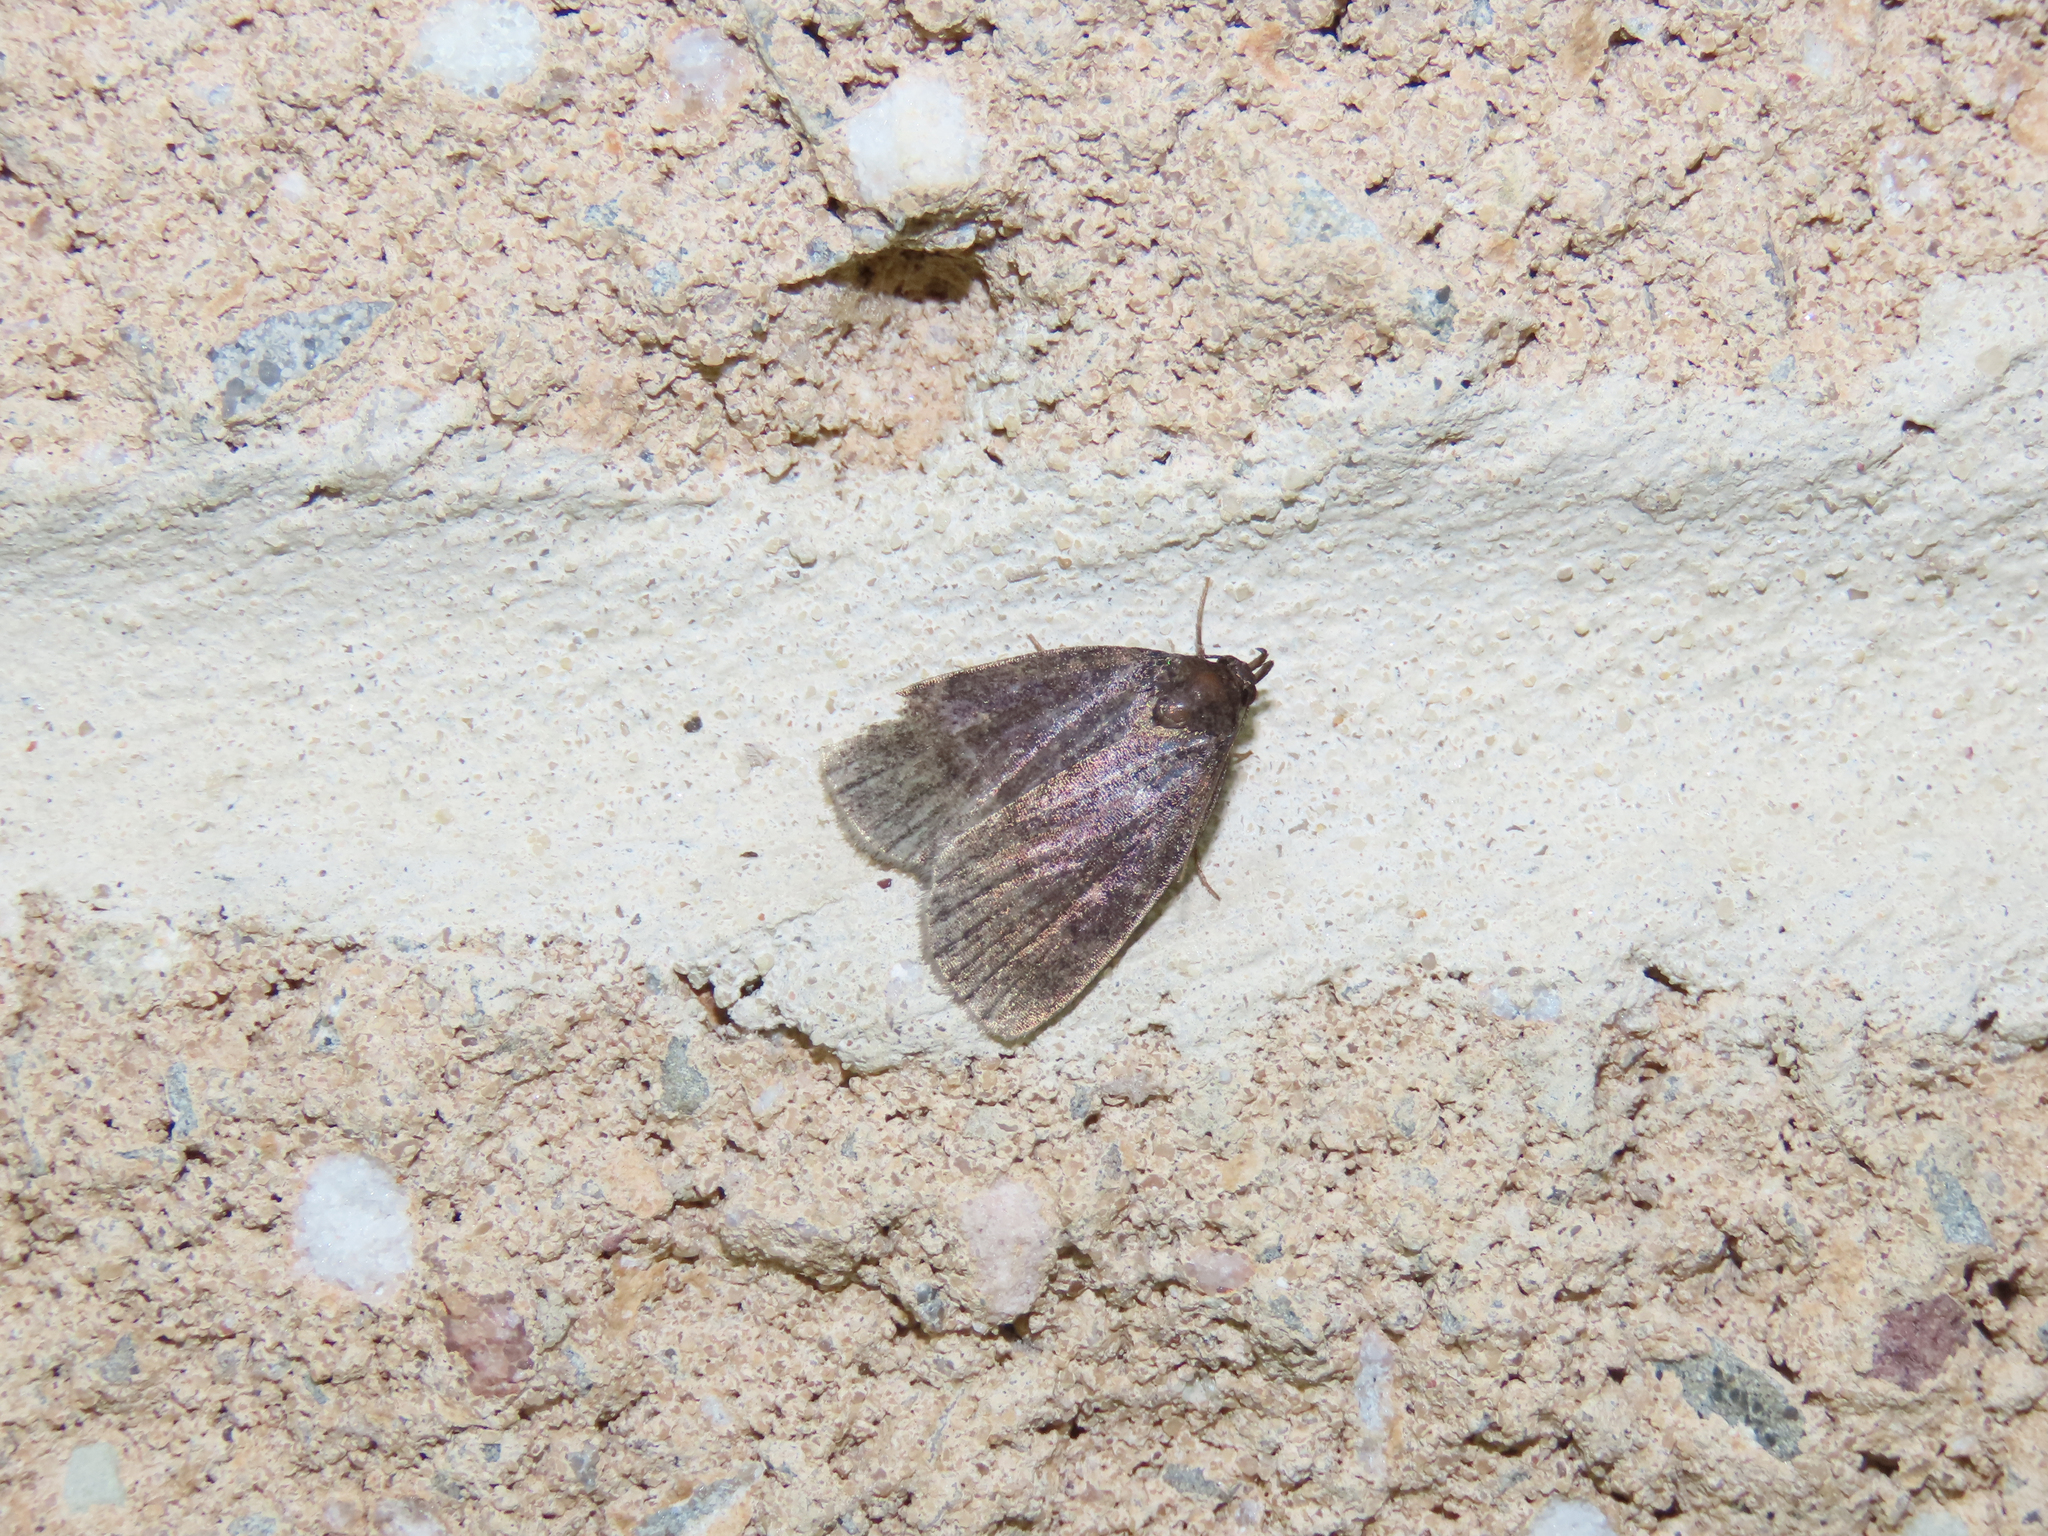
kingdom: Animalia
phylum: Arthropoda
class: Insecta
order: Lepidoptera
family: Erebidae
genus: Idia
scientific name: Idia rotundalis
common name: Rotund idia moth
